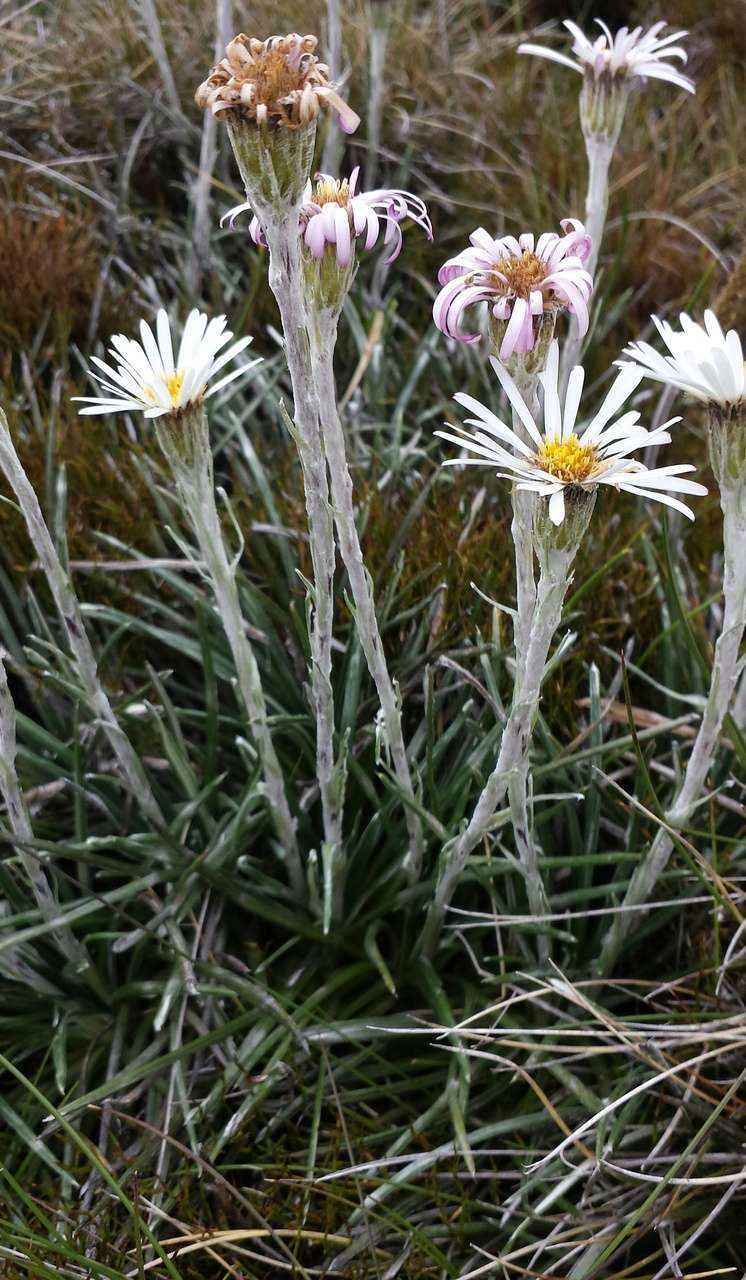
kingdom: Plantae
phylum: Tracheophyta
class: Magnoliopsida
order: Asterales
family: Asteraceae
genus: Celmisia
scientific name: Celmisia pugioniformis
